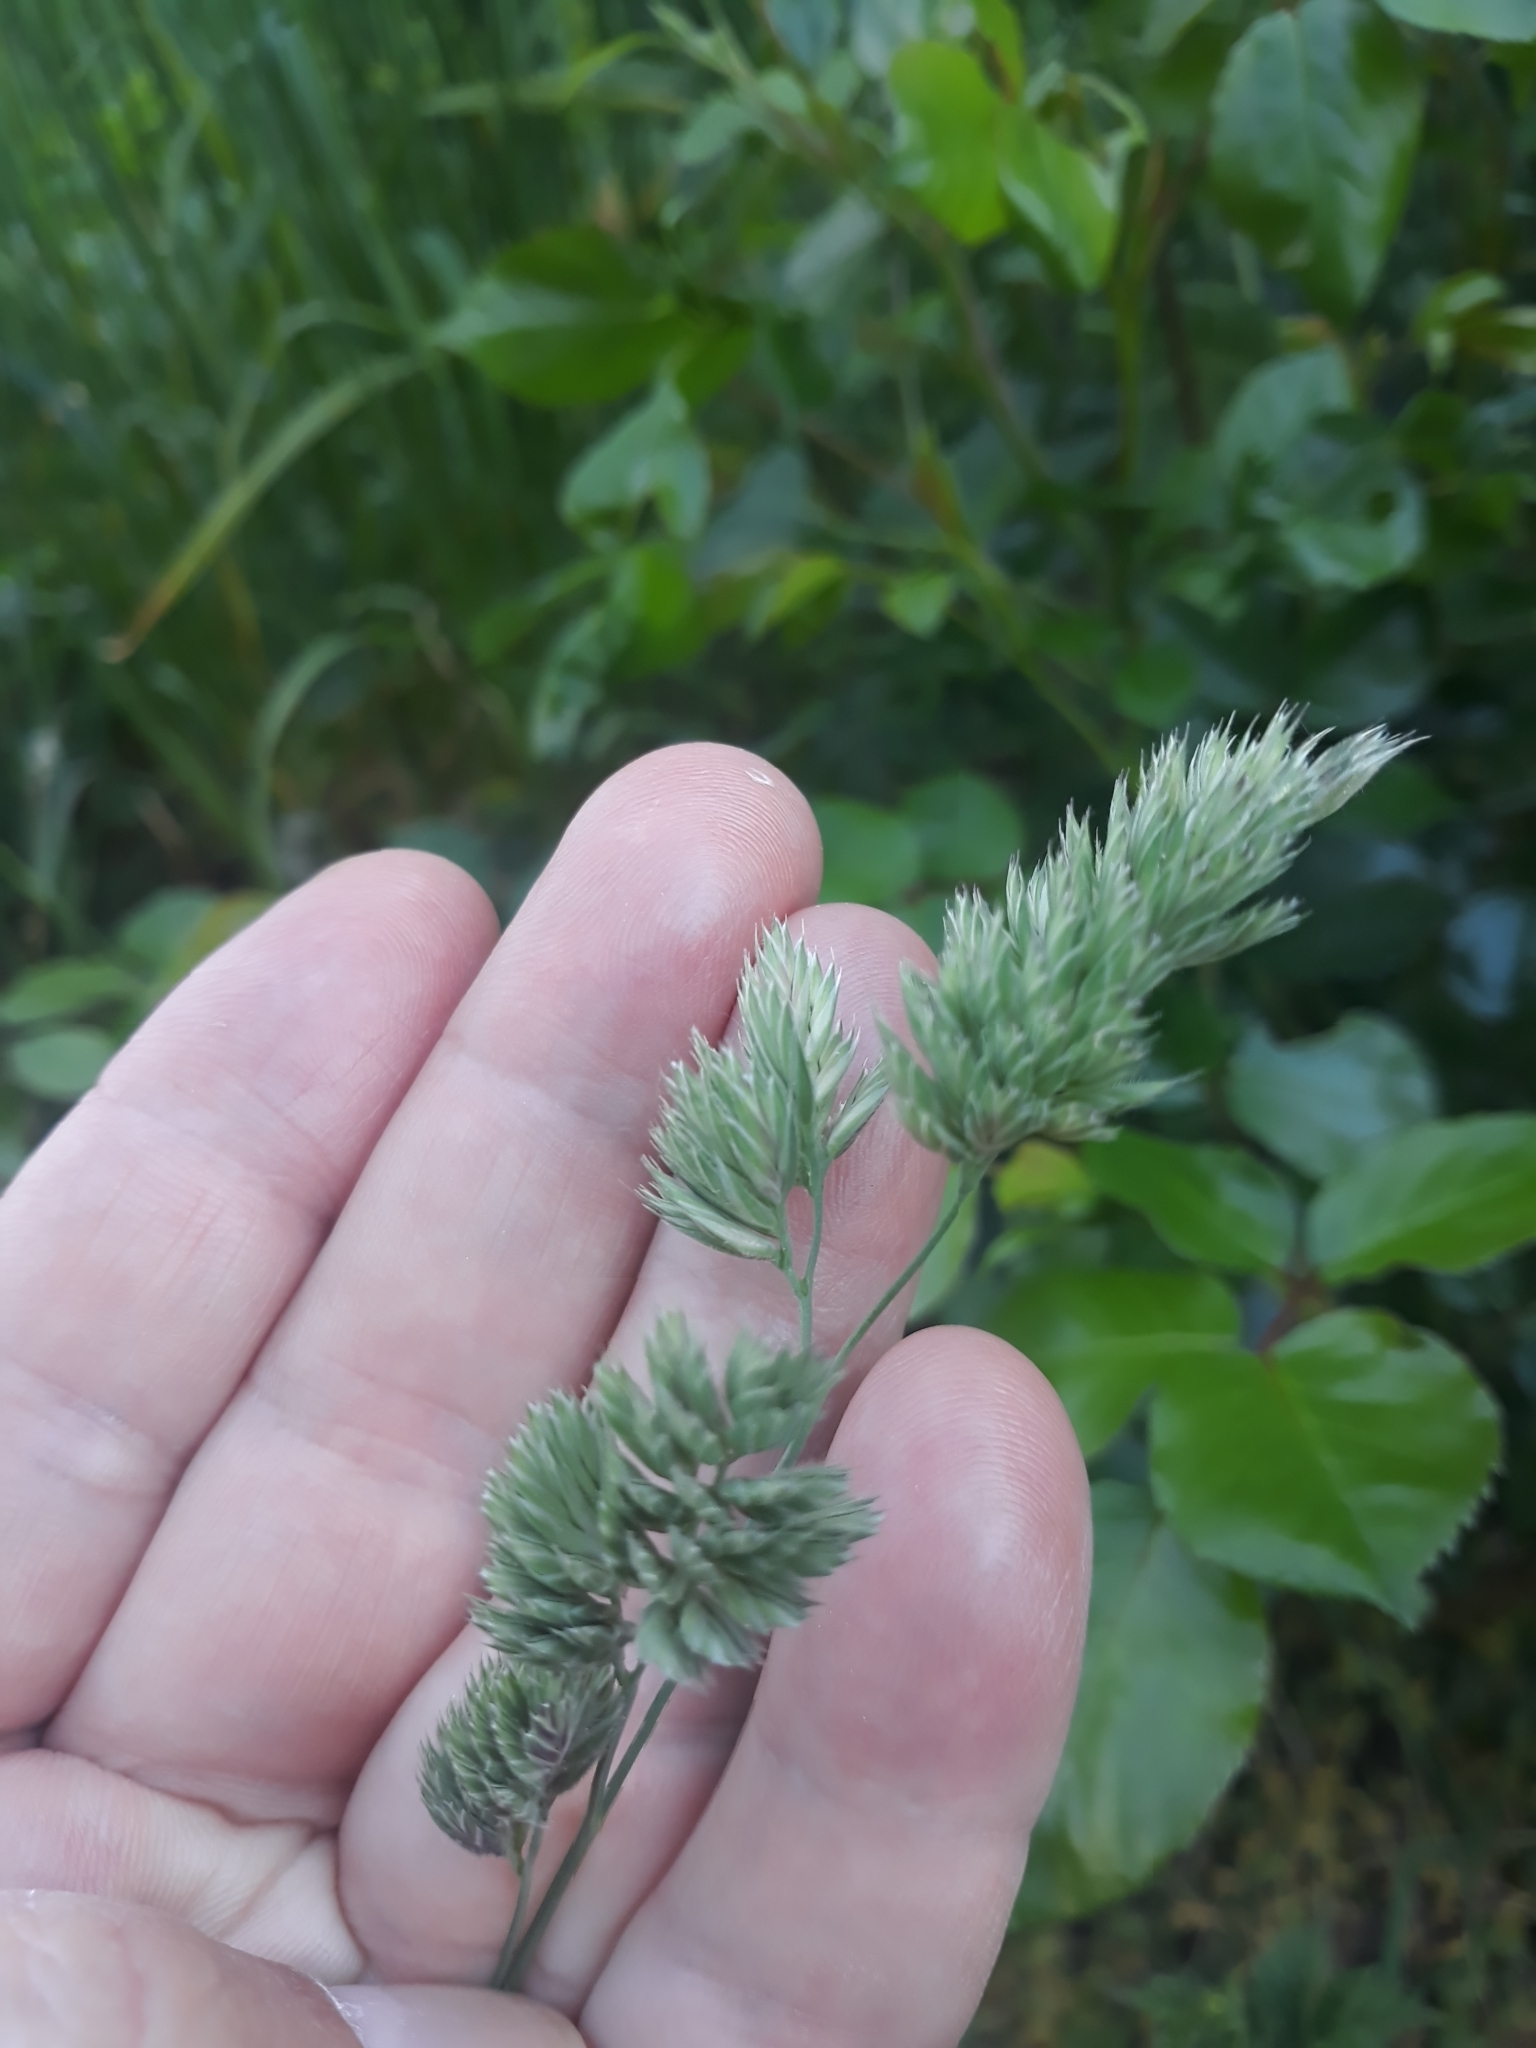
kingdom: Plantae
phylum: Tracheophyta
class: Liliopsida
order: Poales
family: Poaceae
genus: Dactylis
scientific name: Dactylis glomerata
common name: Orchardgrass
